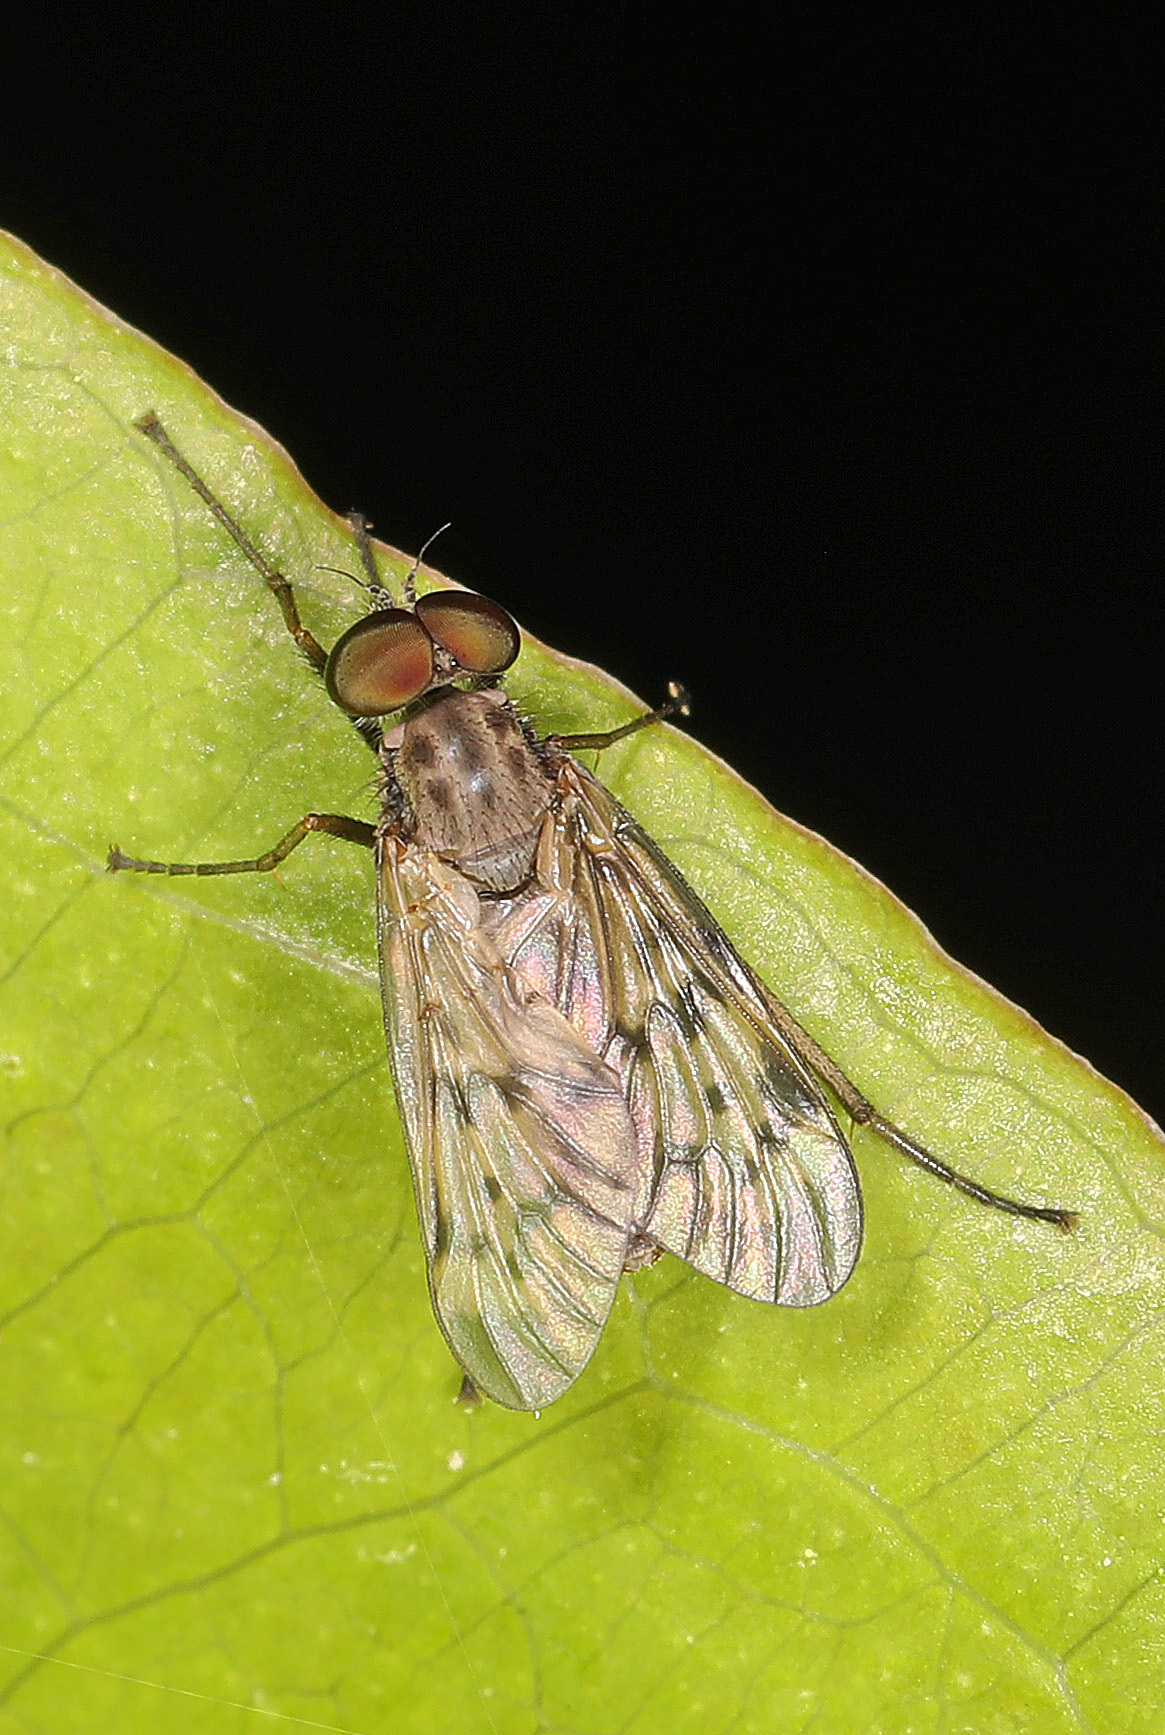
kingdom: Animalia
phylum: Arthropoda
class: Insecta
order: Diptera
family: Rhagionidae
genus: Rhagio
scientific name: Rhagio punctipennis
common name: Lesser variegated snipe fly
